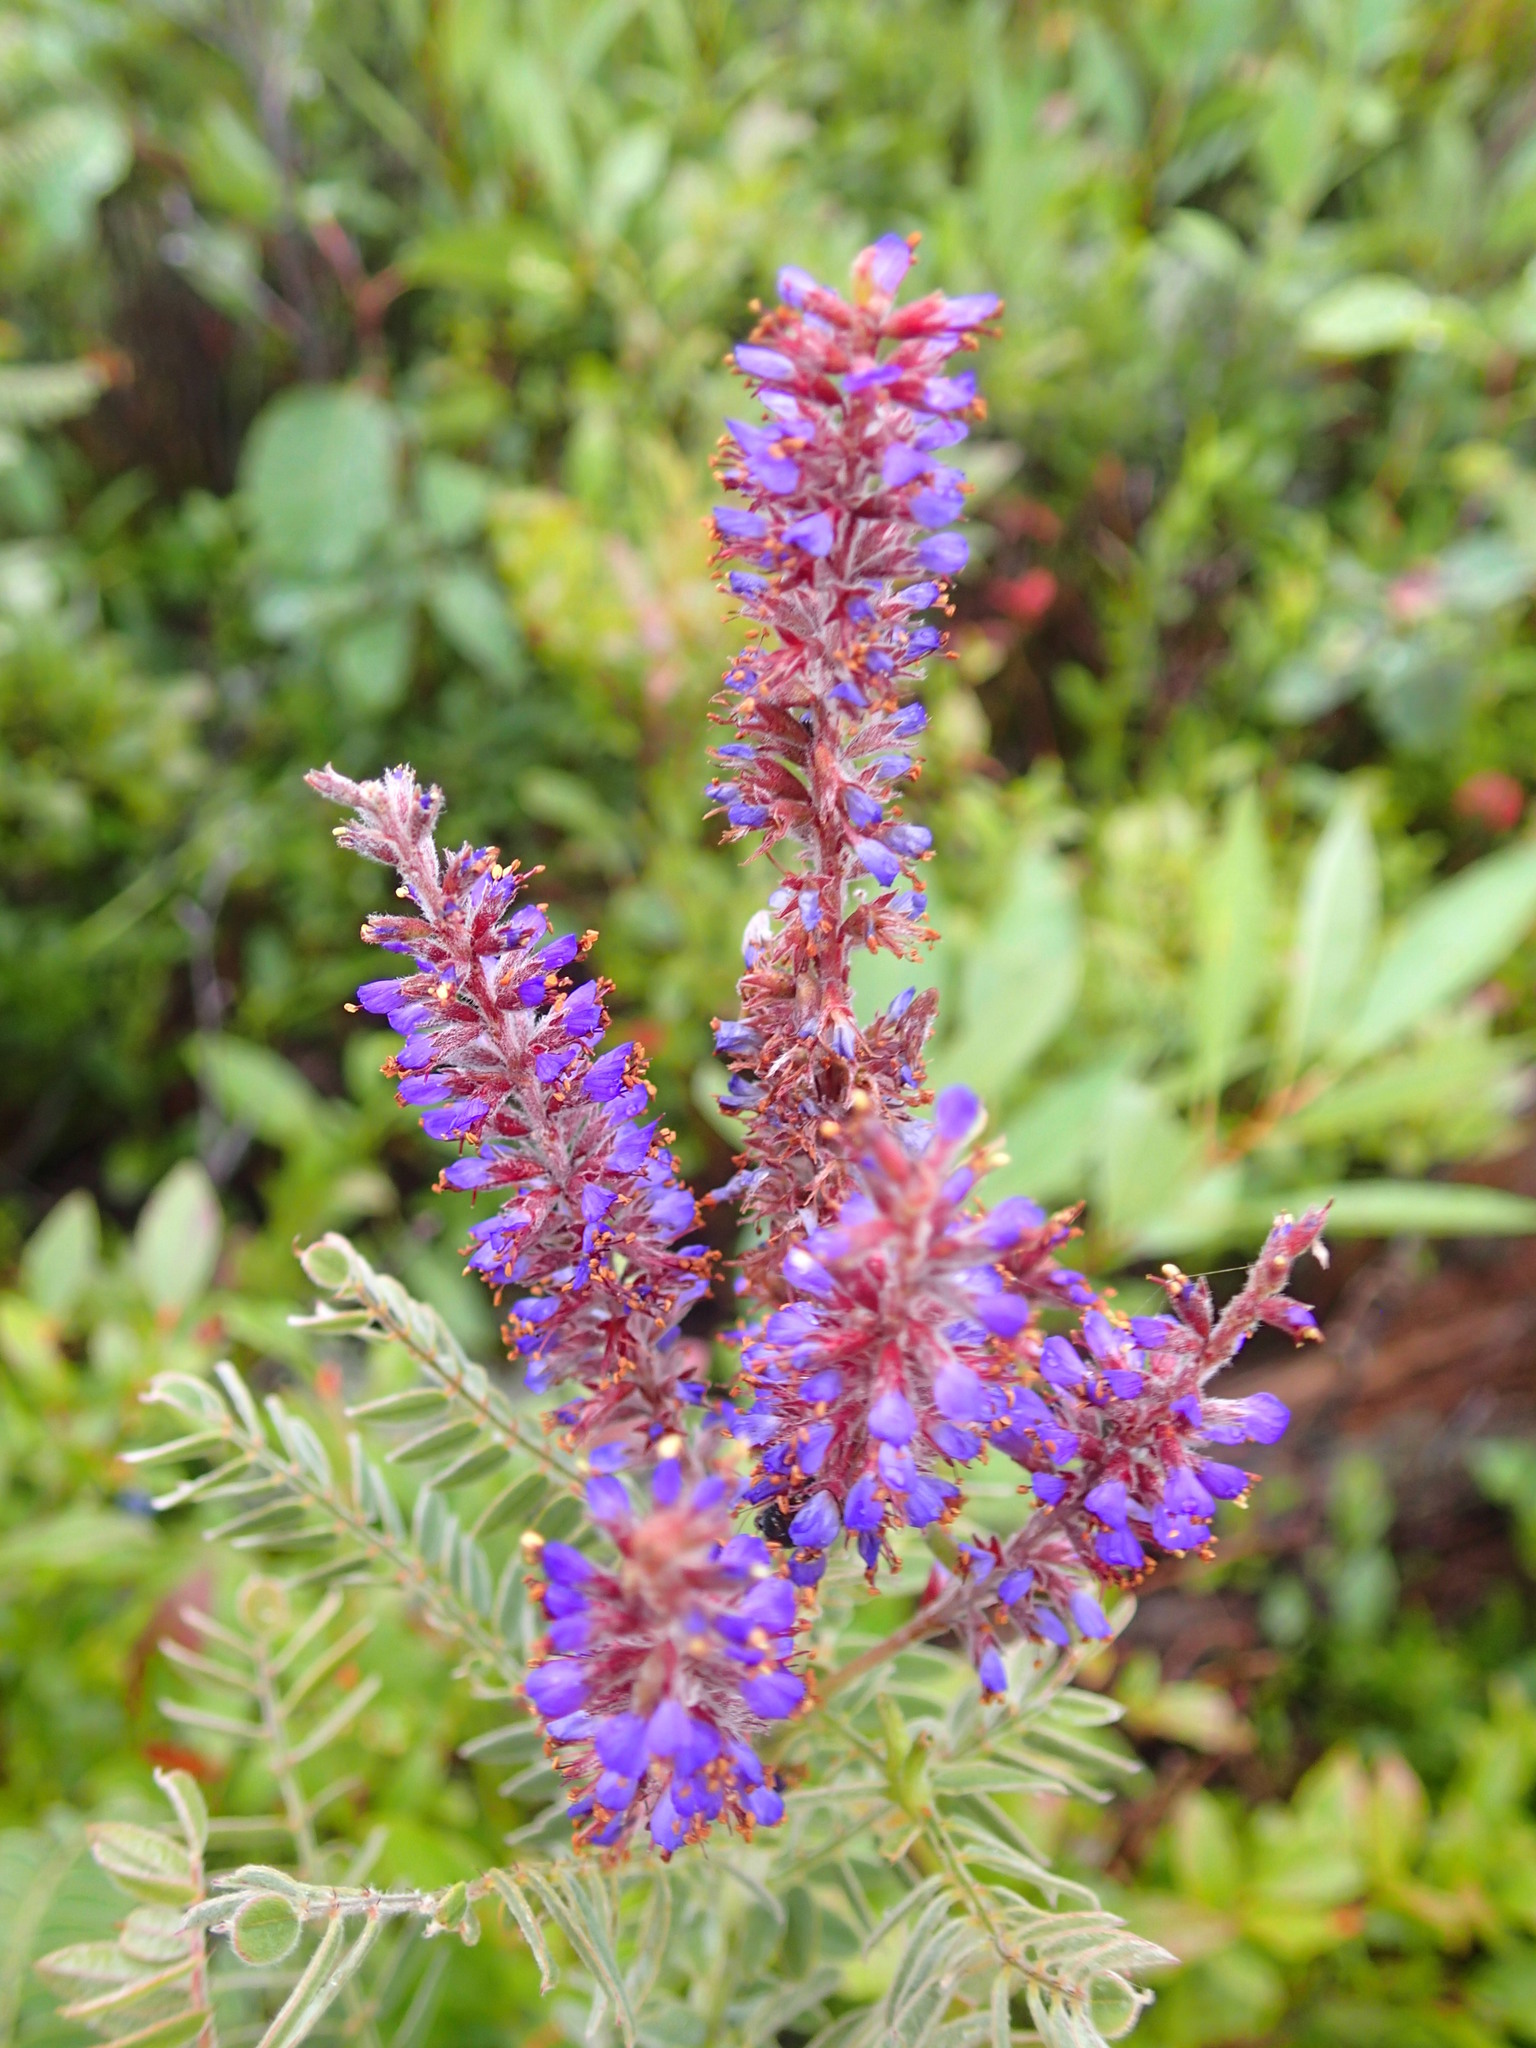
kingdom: Plantae
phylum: Tracheophyta
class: Magnoliopsida
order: Fabales
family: Fabaceae
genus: Amorpha
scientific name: Amorpha canescens
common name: Leadplant
